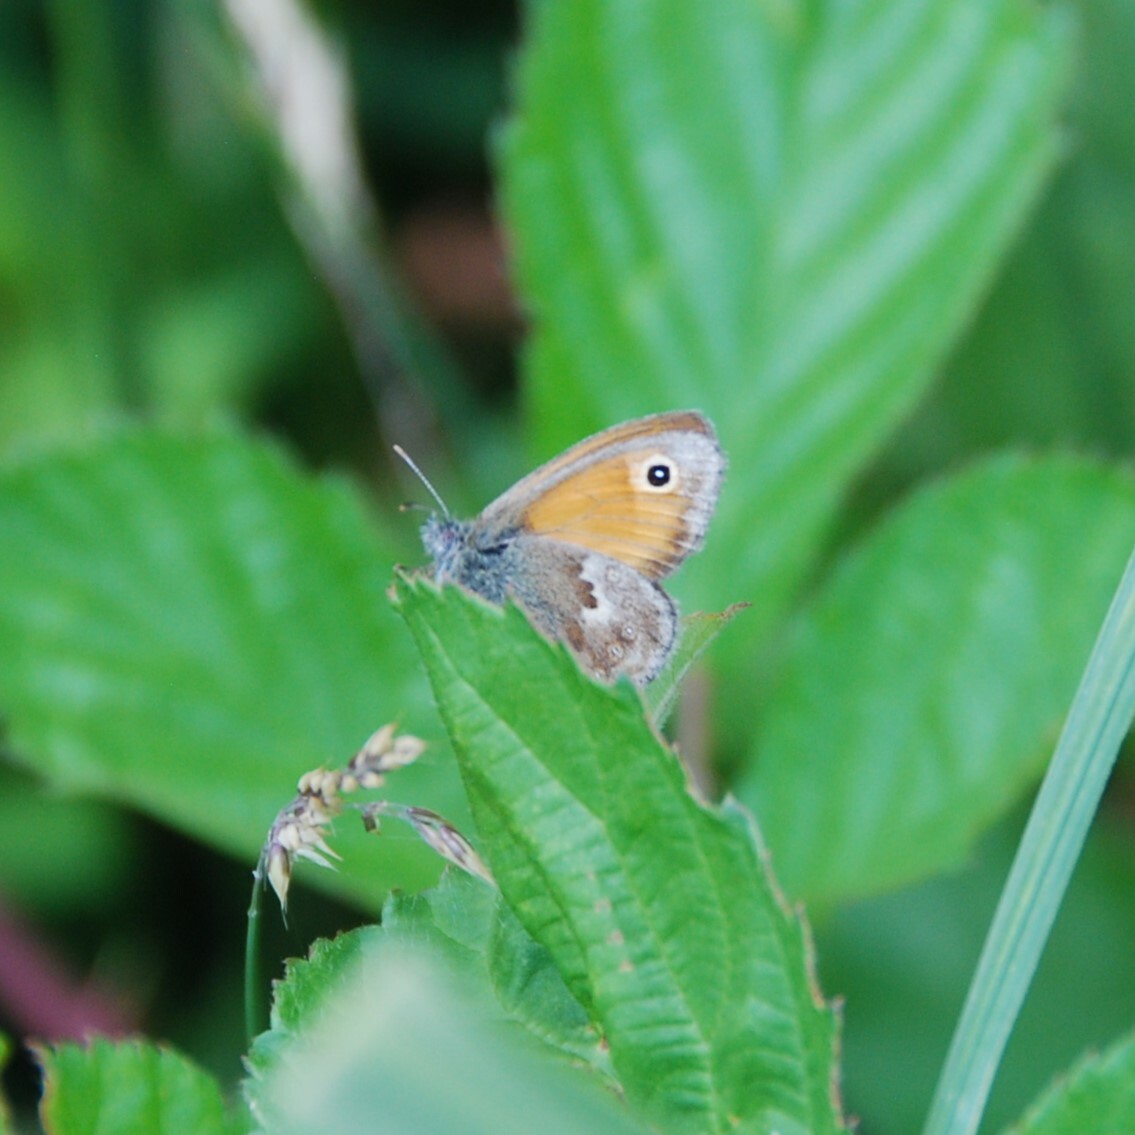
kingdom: Animalia
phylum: Arthropoda
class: Insecta
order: Lepidoptera
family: Nymphalidae
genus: Coenonympha
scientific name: Coenonympha pamphilus
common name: Small heath
